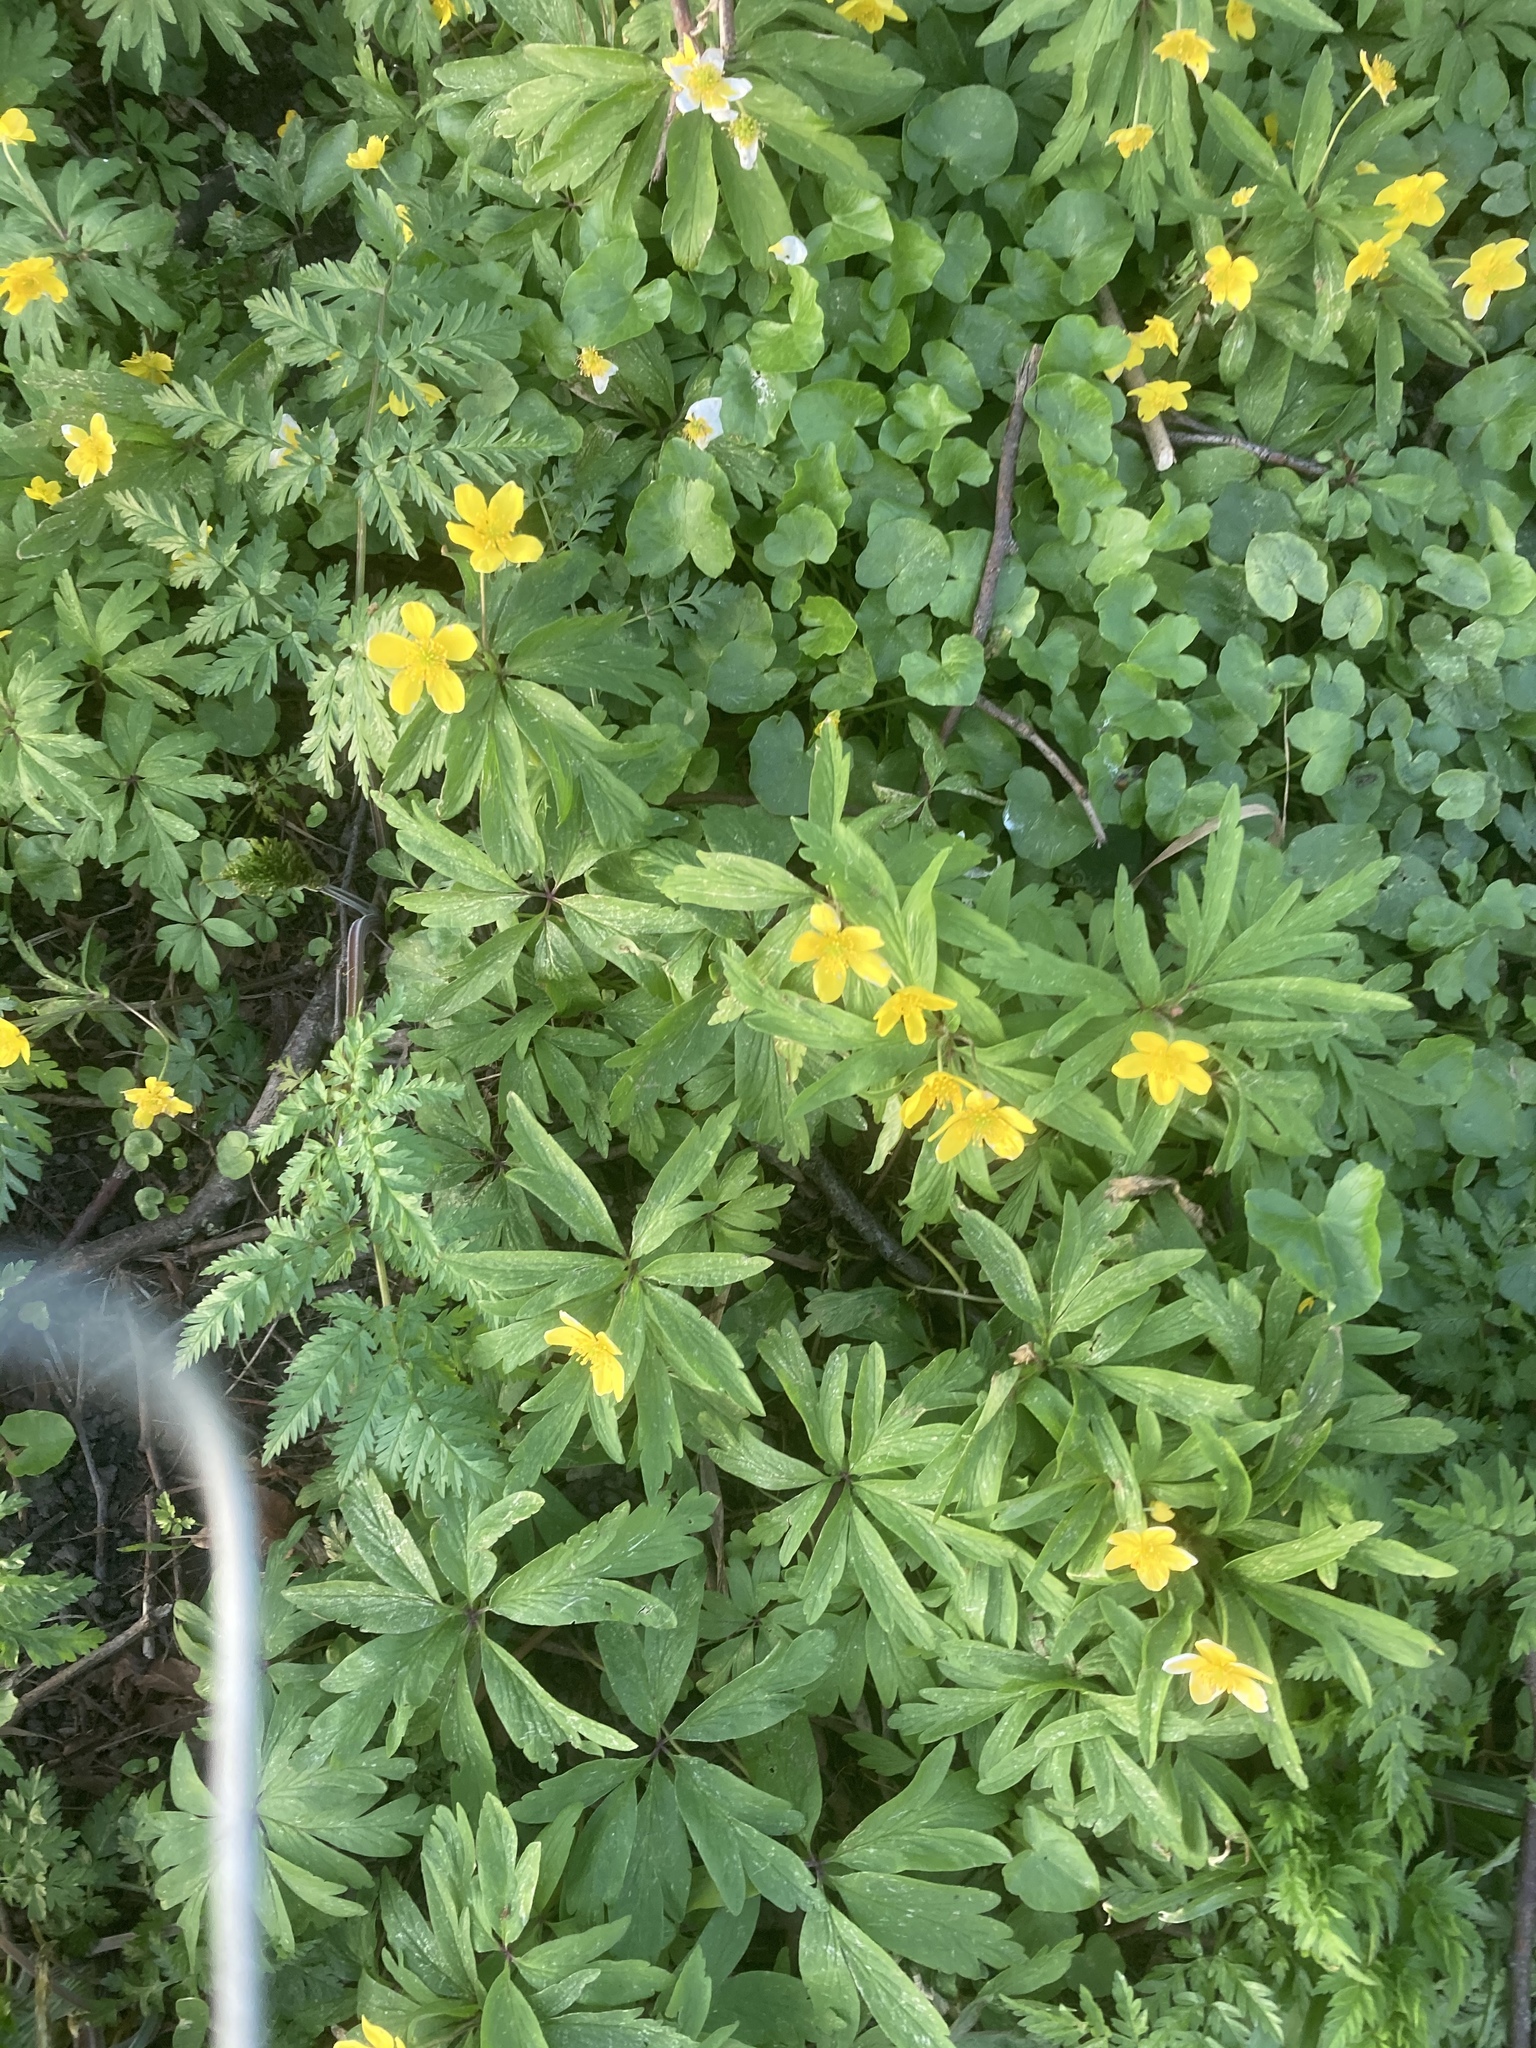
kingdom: Plantae
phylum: Tracheophyta
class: Magnoliopsida
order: Ranunculales
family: Ranunculaceae
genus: Anemone
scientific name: Anemone ranunculoides
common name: Yellow anemone
